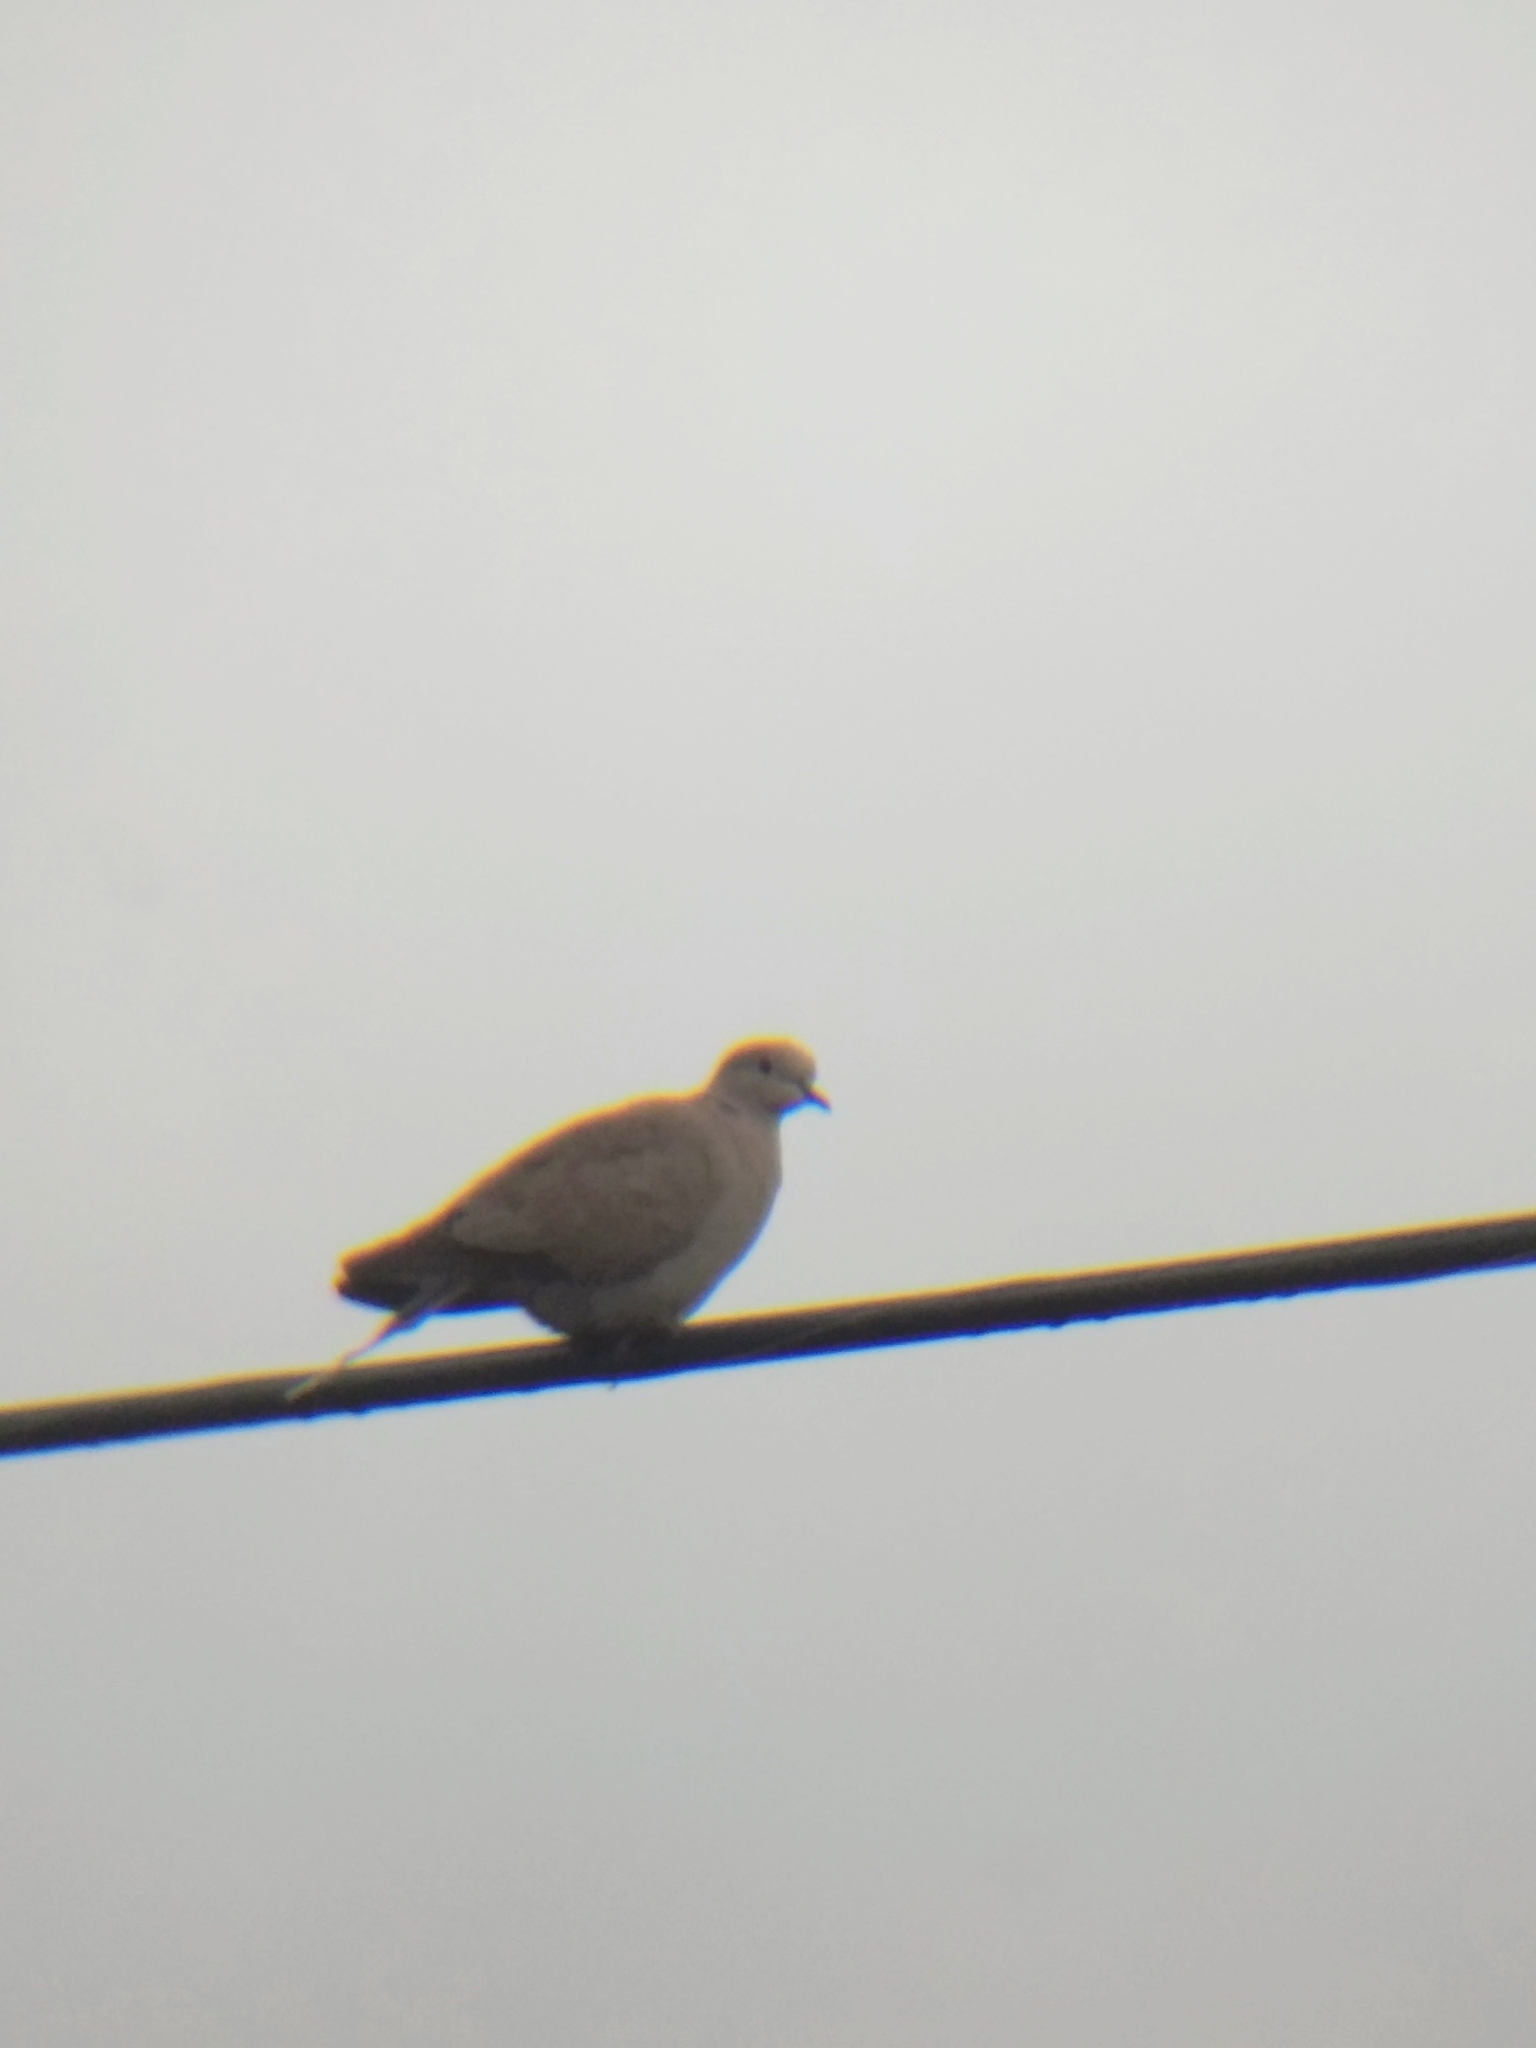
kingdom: Animalia
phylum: Chordata
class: Aves
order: Columbiformes
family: Columbidae
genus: Streptopelia
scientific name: Streptopelia decaocto
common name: Eurasian collared dove
